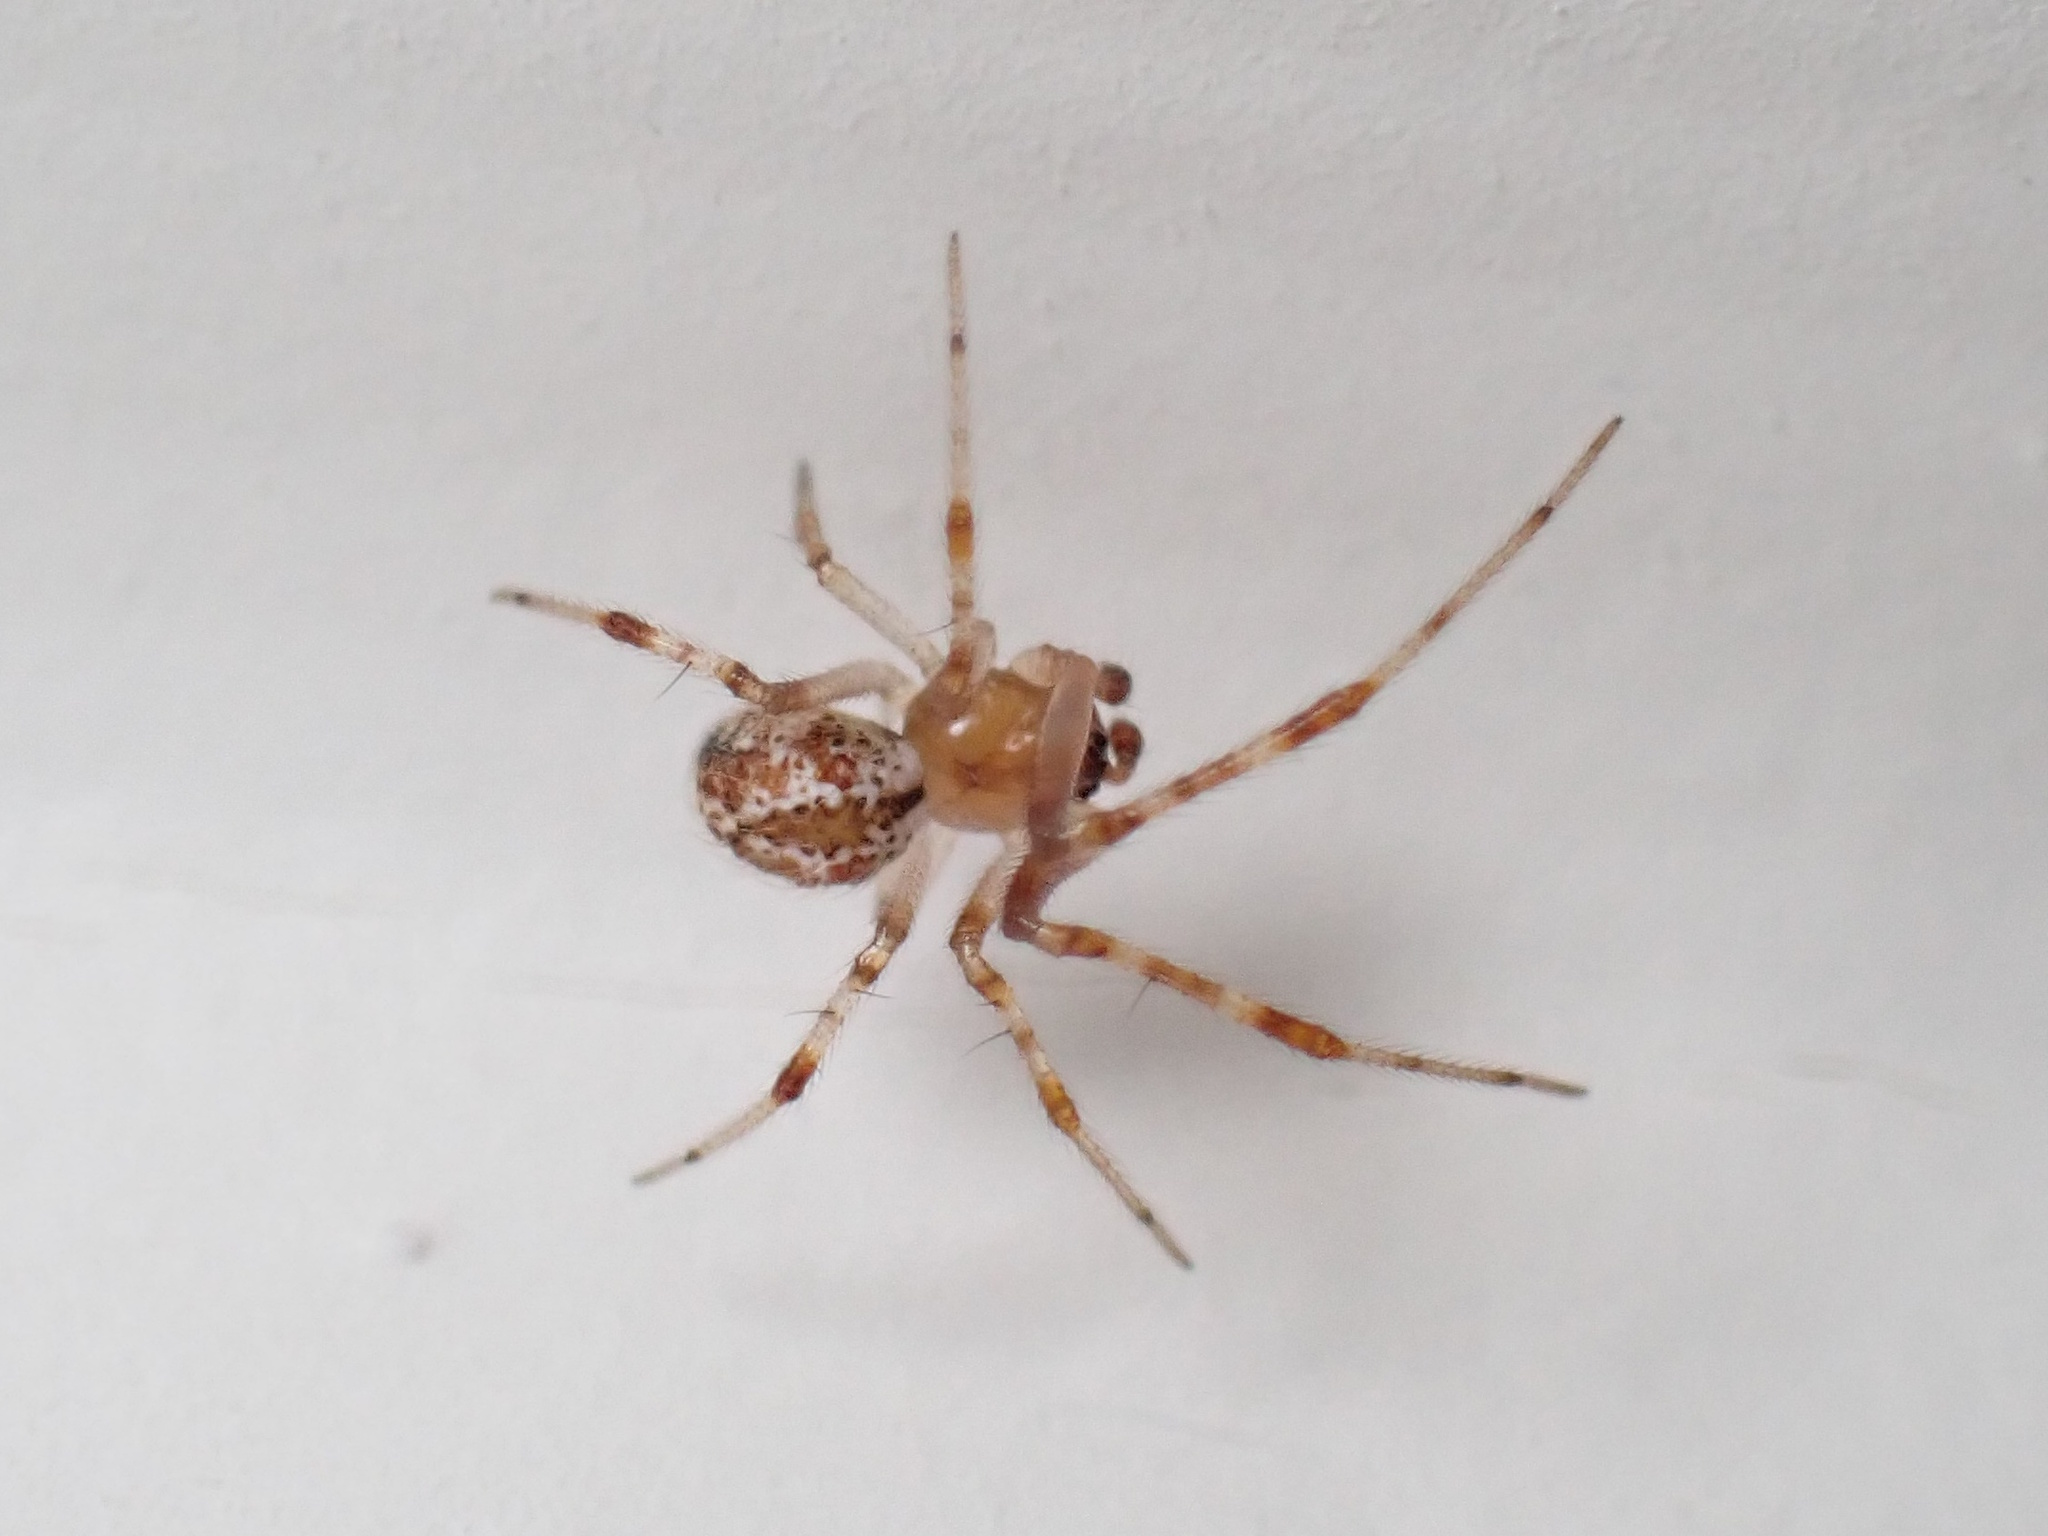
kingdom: Animalia
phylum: Arthropoda
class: Arachnida
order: Araneae
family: Theridiidae
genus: Cryptachaea
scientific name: Cryptachaea veruculata
